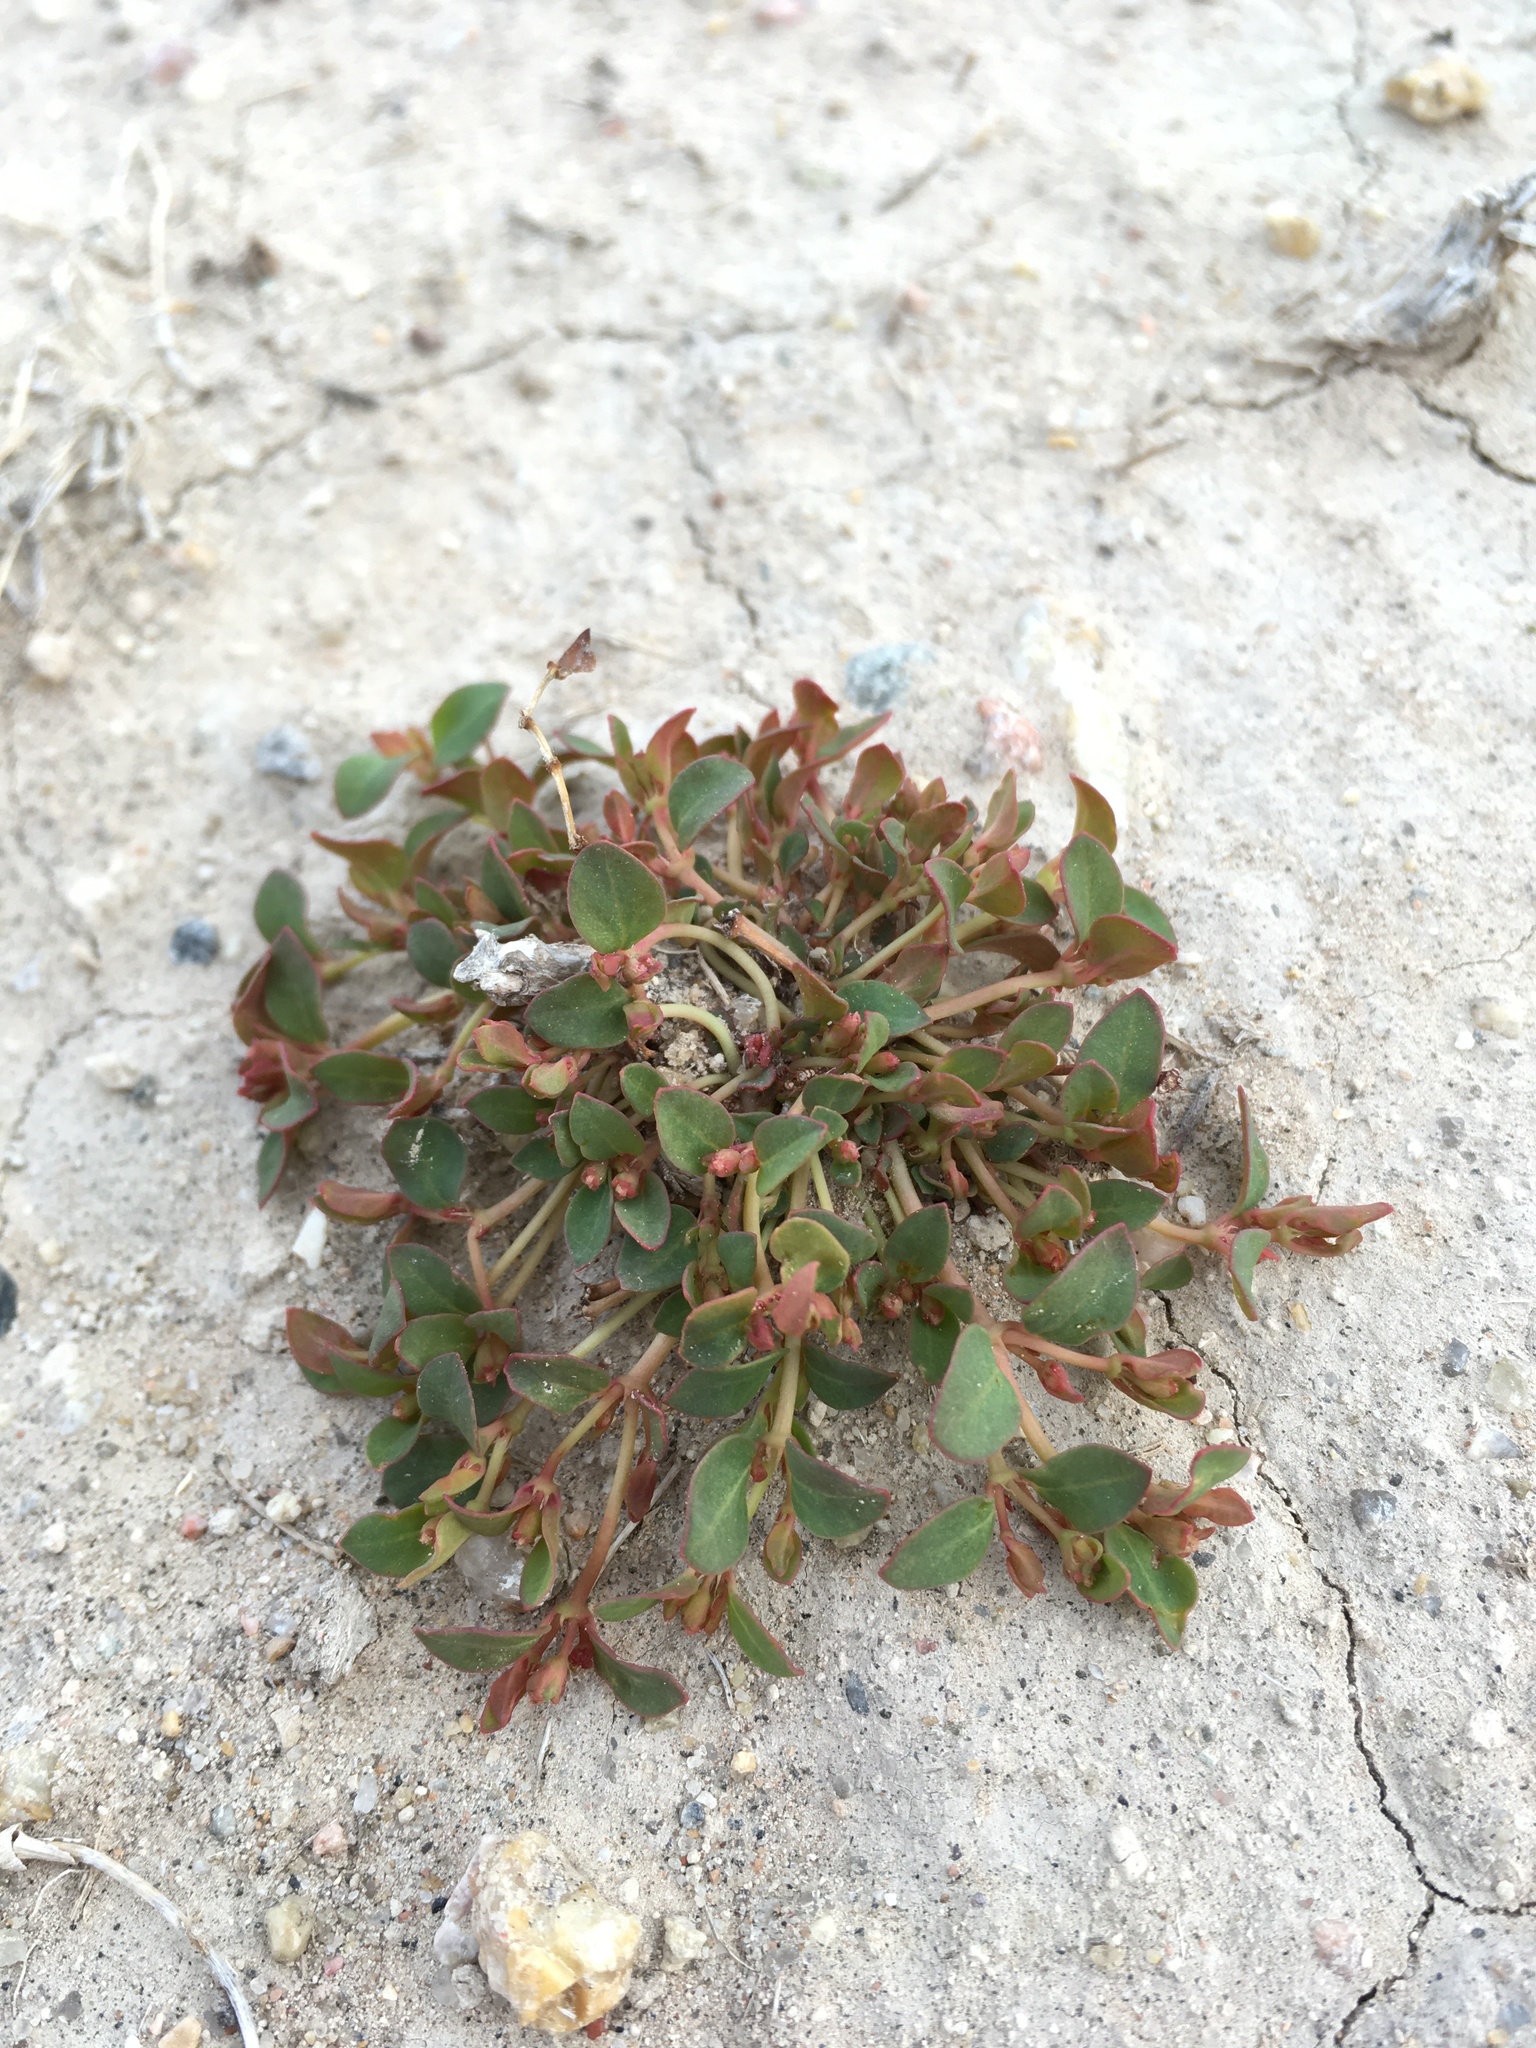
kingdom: Plantae
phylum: Tracheophyta
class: Magnoliopsida
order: Malpighiales
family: Euphorbiaceae
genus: Euphorbia
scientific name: Euphorbia fendleri
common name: Fendler's euphorbia
